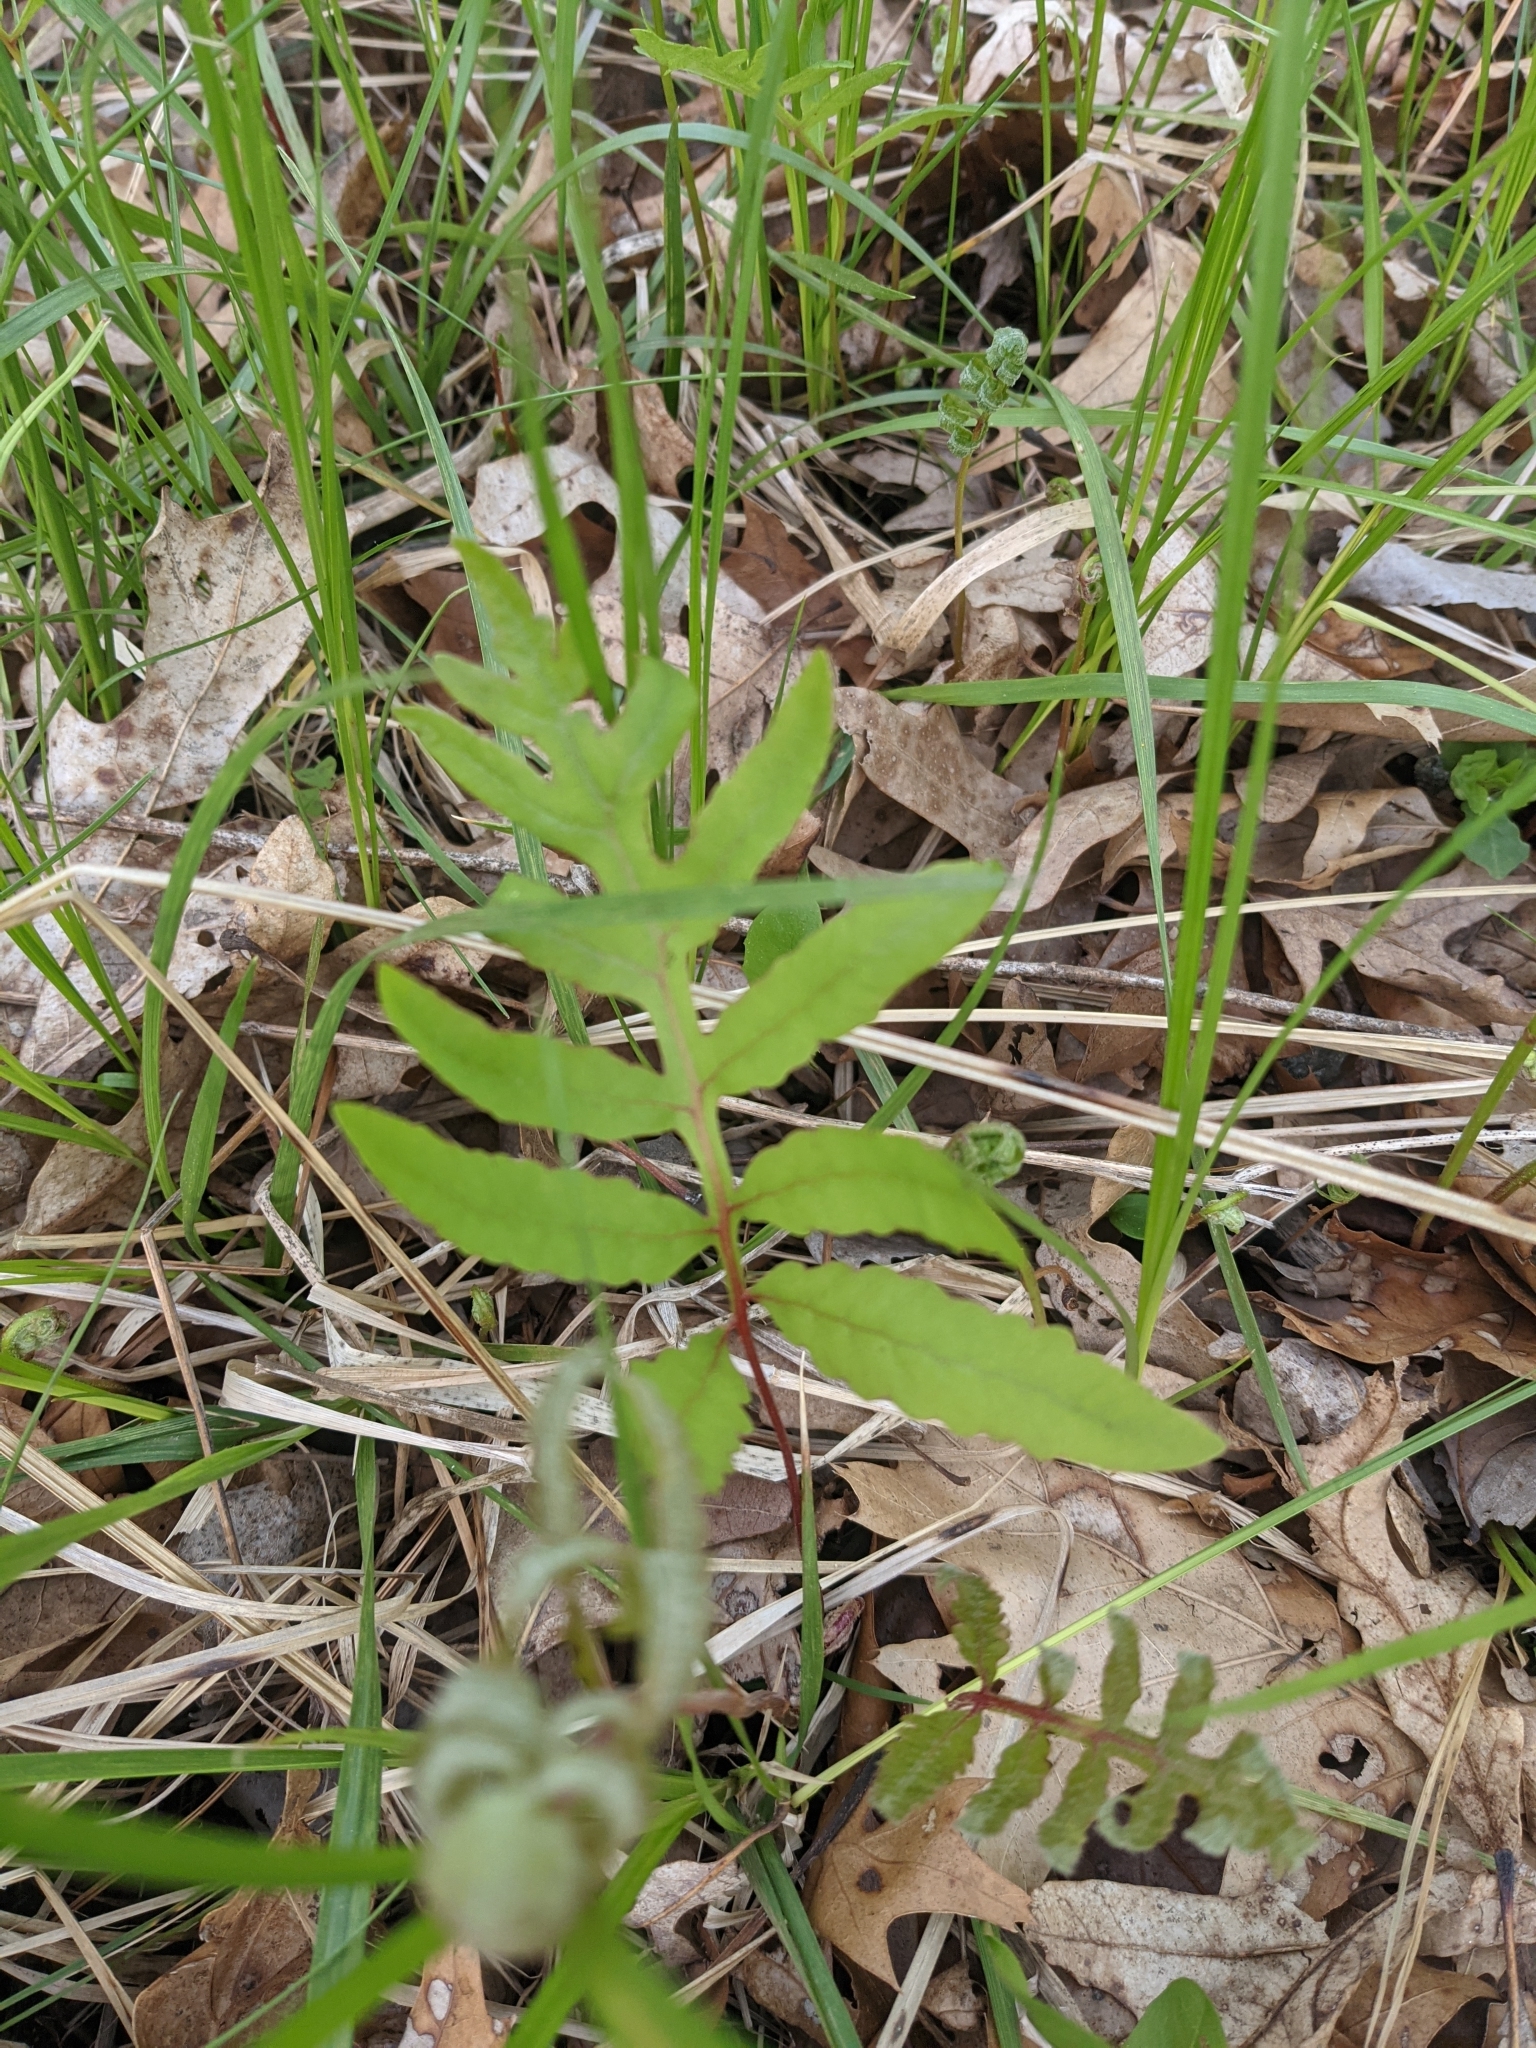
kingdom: Plantae
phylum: Tracheophyta
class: Polypodiopsida
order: Polypodiales
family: Onocleaceae
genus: Onoclea
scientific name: Onoclea sensibilis
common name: Sensitive fern
